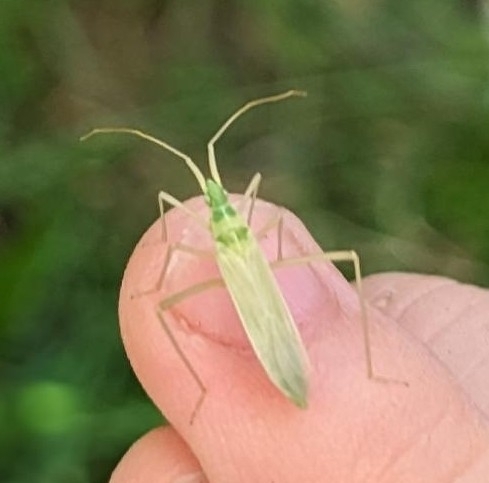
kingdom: Animalia
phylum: Arthropoda
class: Insecta
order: Hemiptera
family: Miridae
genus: Megaloceroea
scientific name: Megaloceroea recticornis
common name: Plant bug
